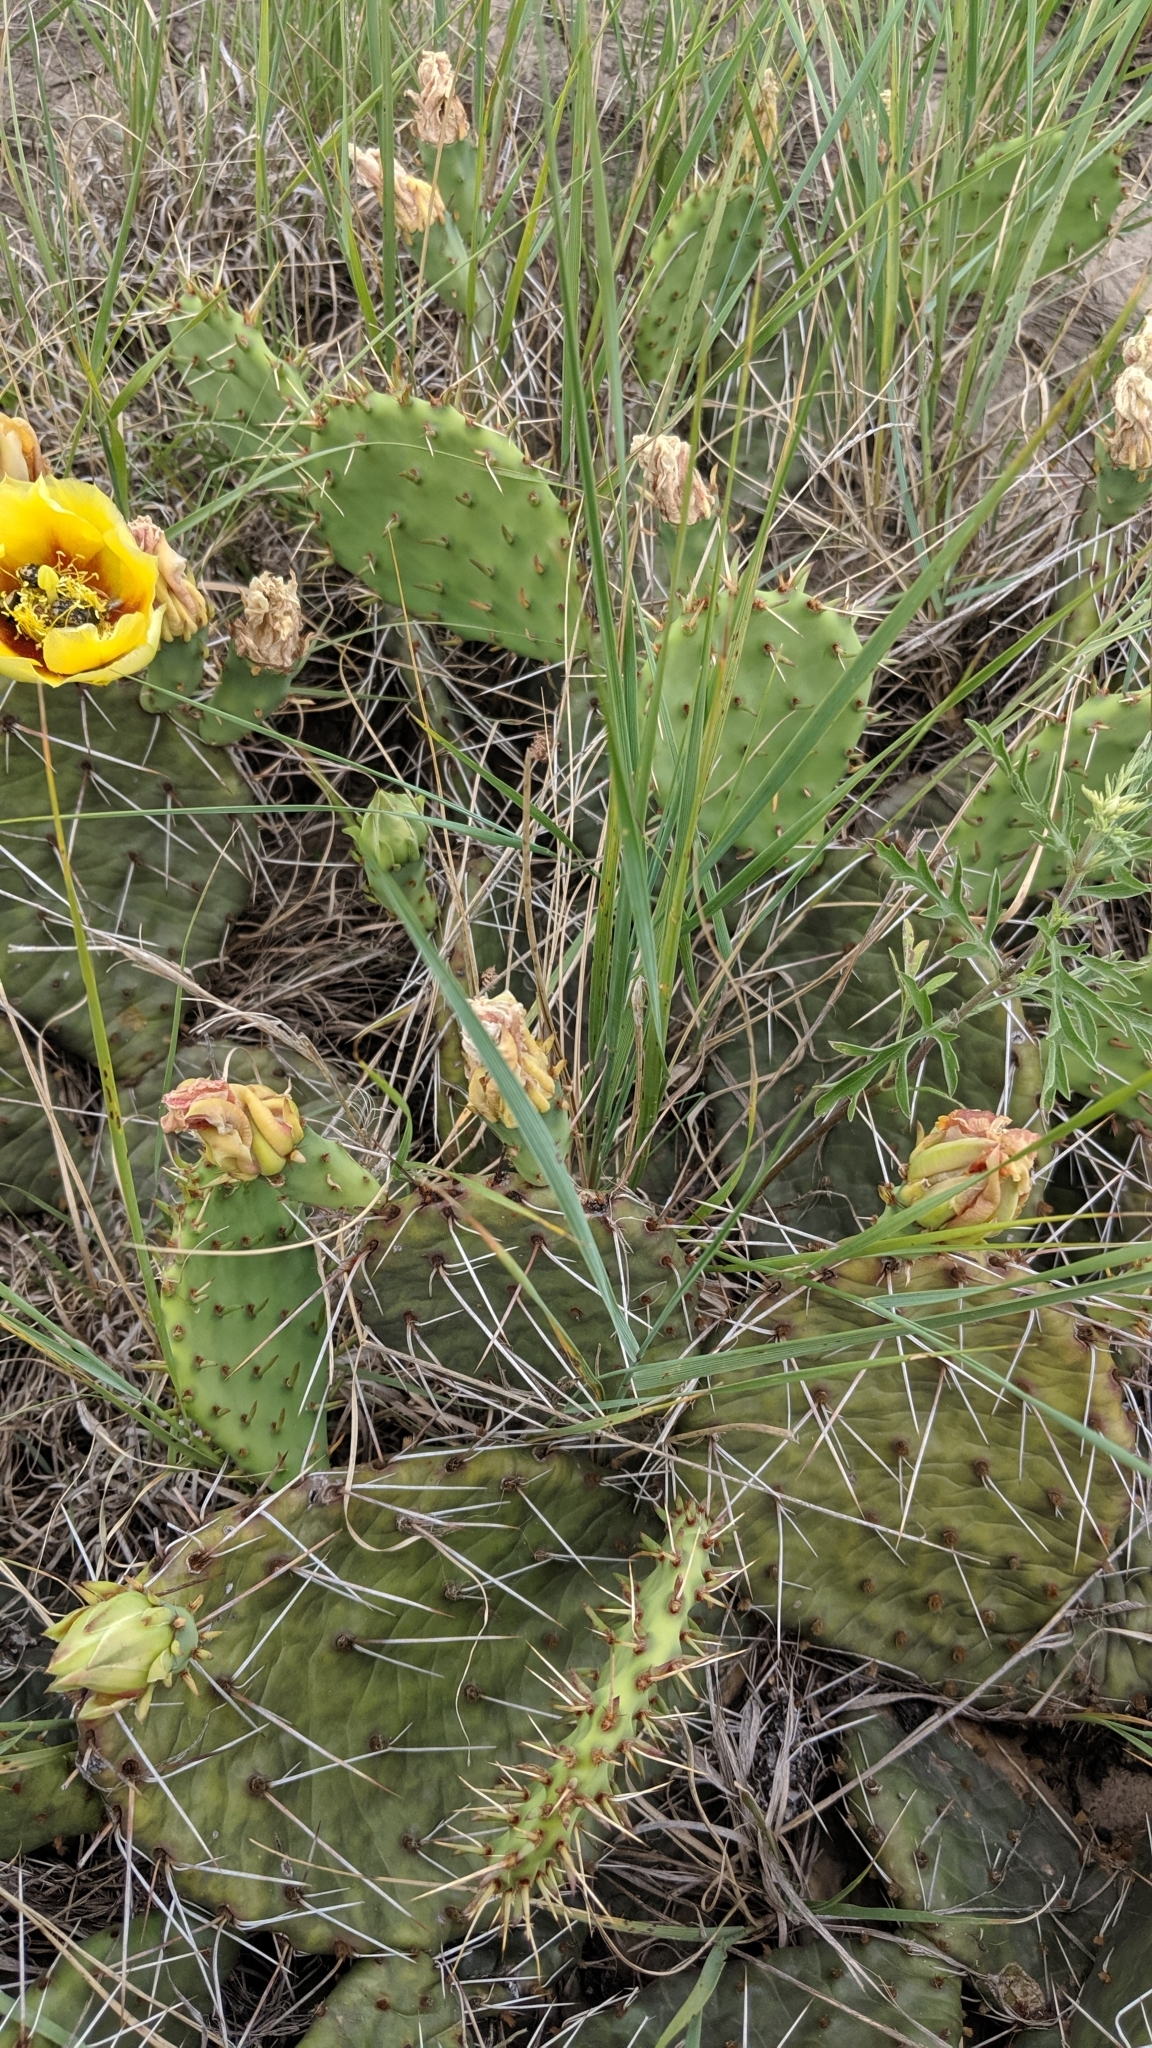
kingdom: Plantae
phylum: Tracheophyta
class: Magnoliopsida
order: Caryophyllales
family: Cactaceae
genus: Opuntia
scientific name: Opuntia macrorhiza
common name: Grassland pricklypear
